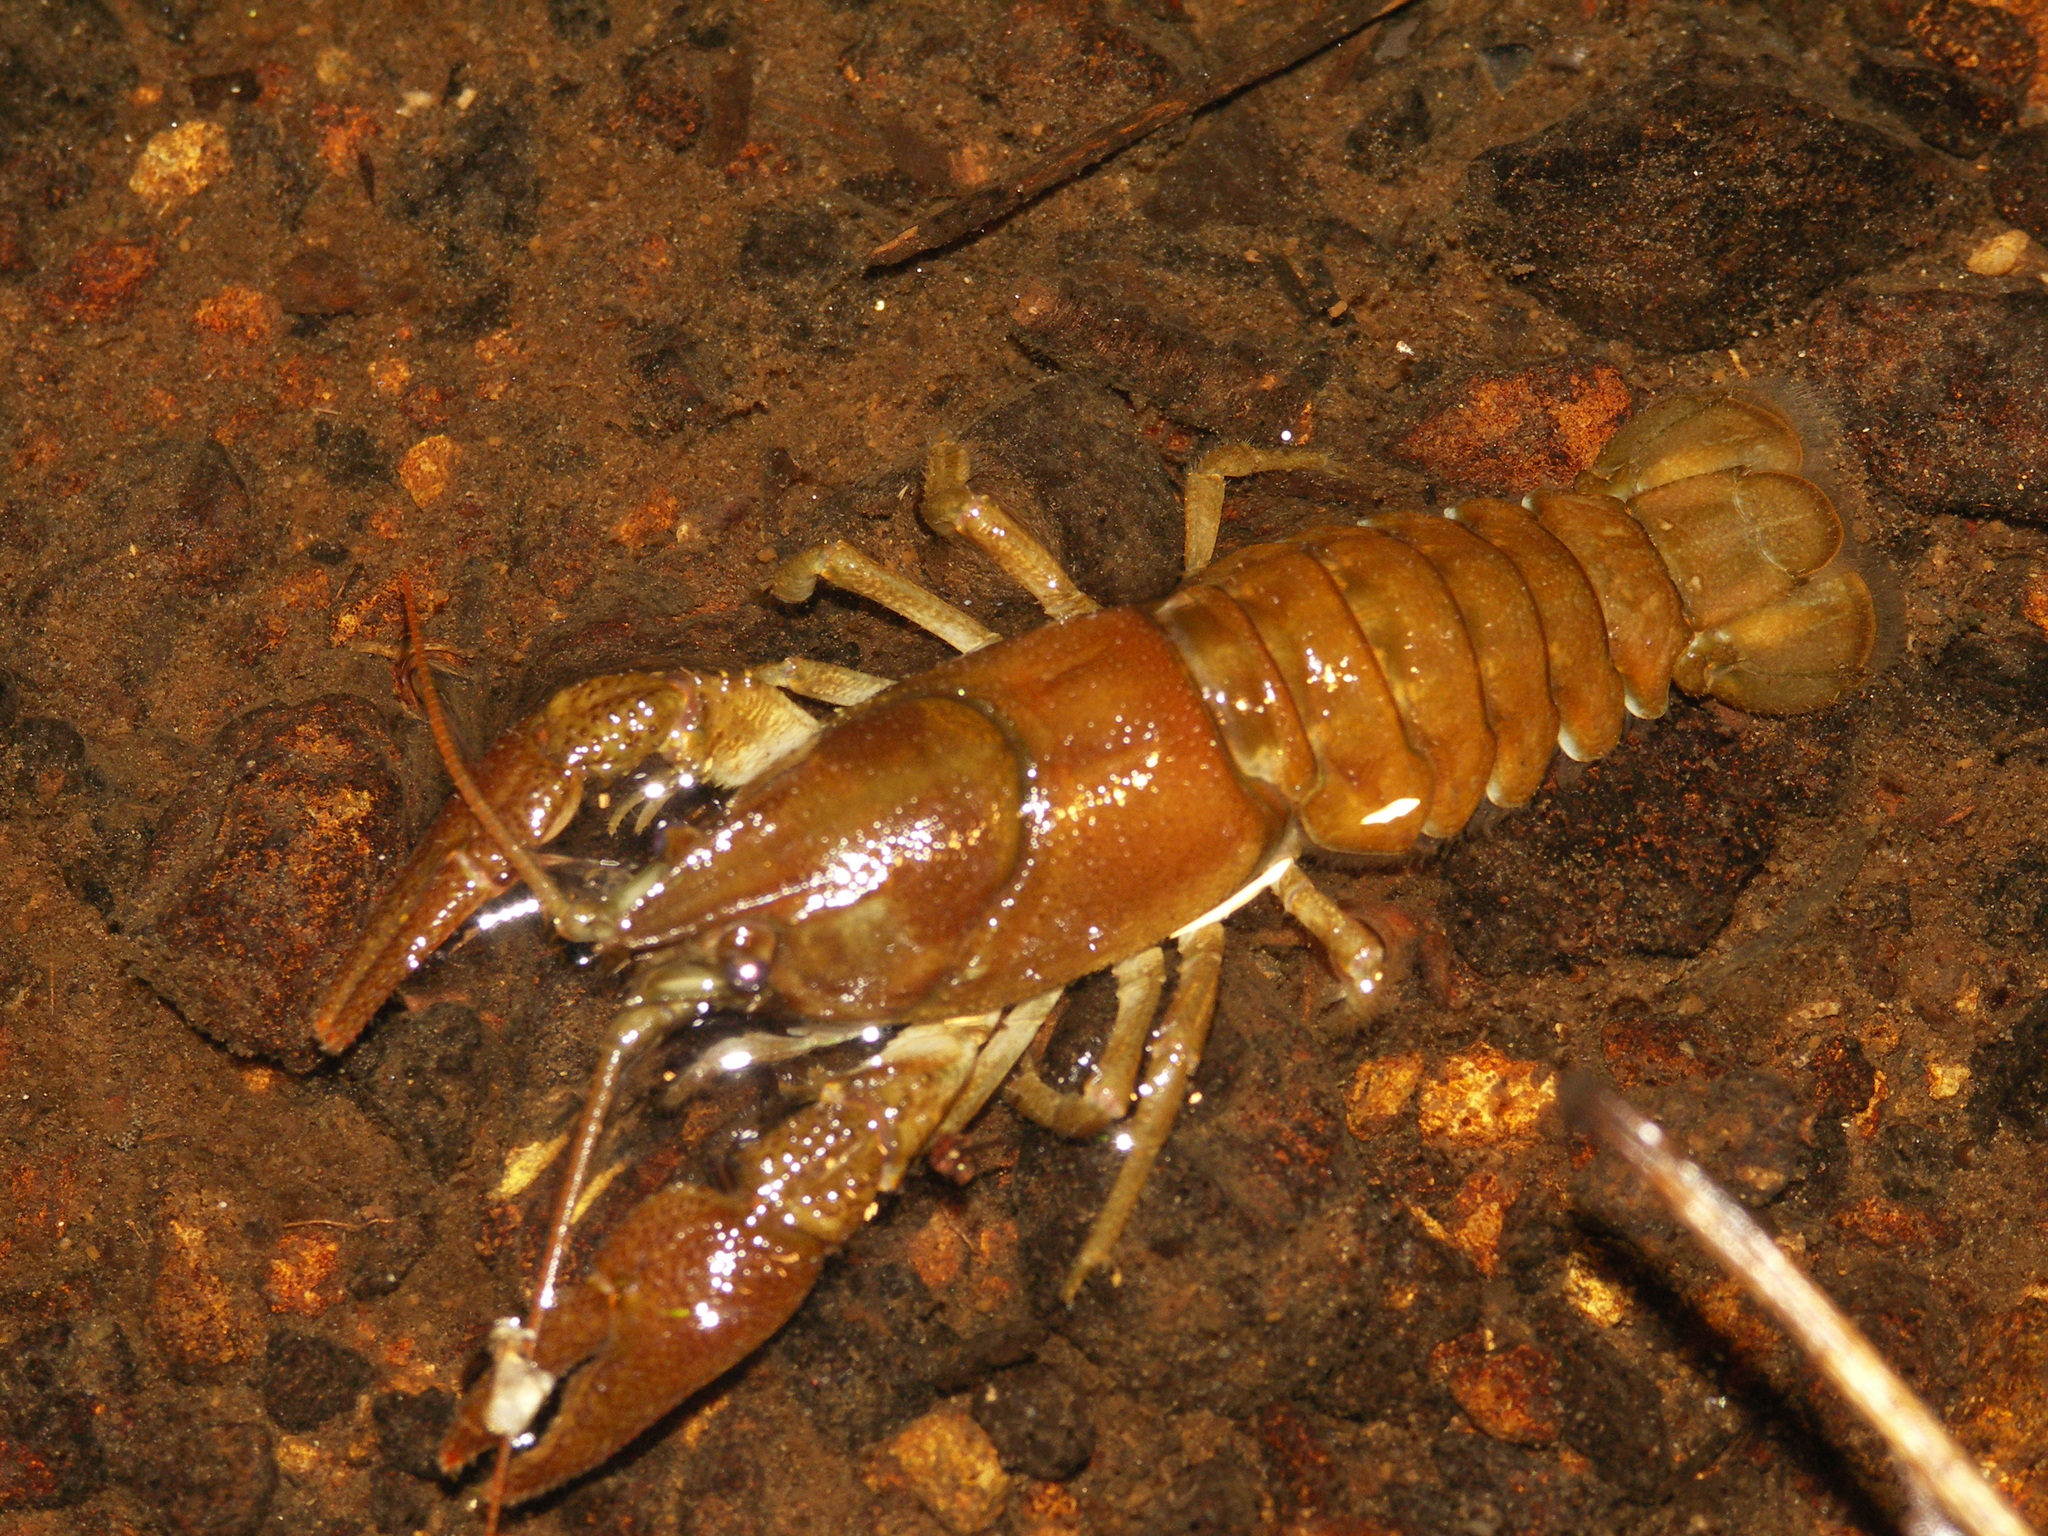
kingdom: Animalia
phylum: Arthropoda
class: Malacostraca
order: Decapoda
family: Astacidae
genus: Austropotamobius
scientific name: Austropotamobius pallipes
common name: White-clawed crayfish
